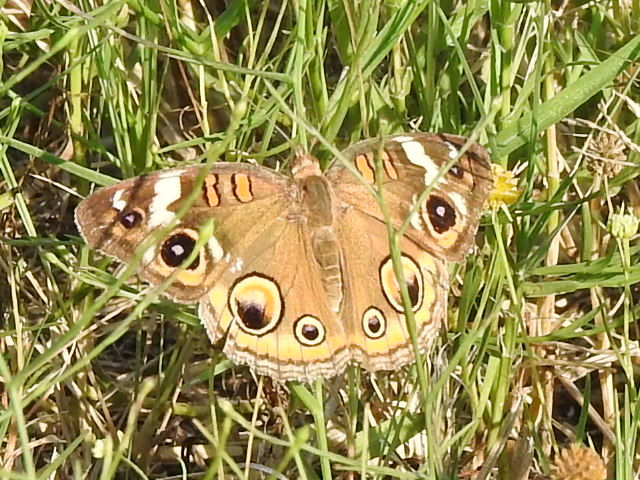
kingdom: Animalia
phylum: Arthropoda
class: Insecta
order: Lepidoptera
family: Nymphalidae
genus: Junonia
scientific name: Junonia coenia
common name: Common buckeye
